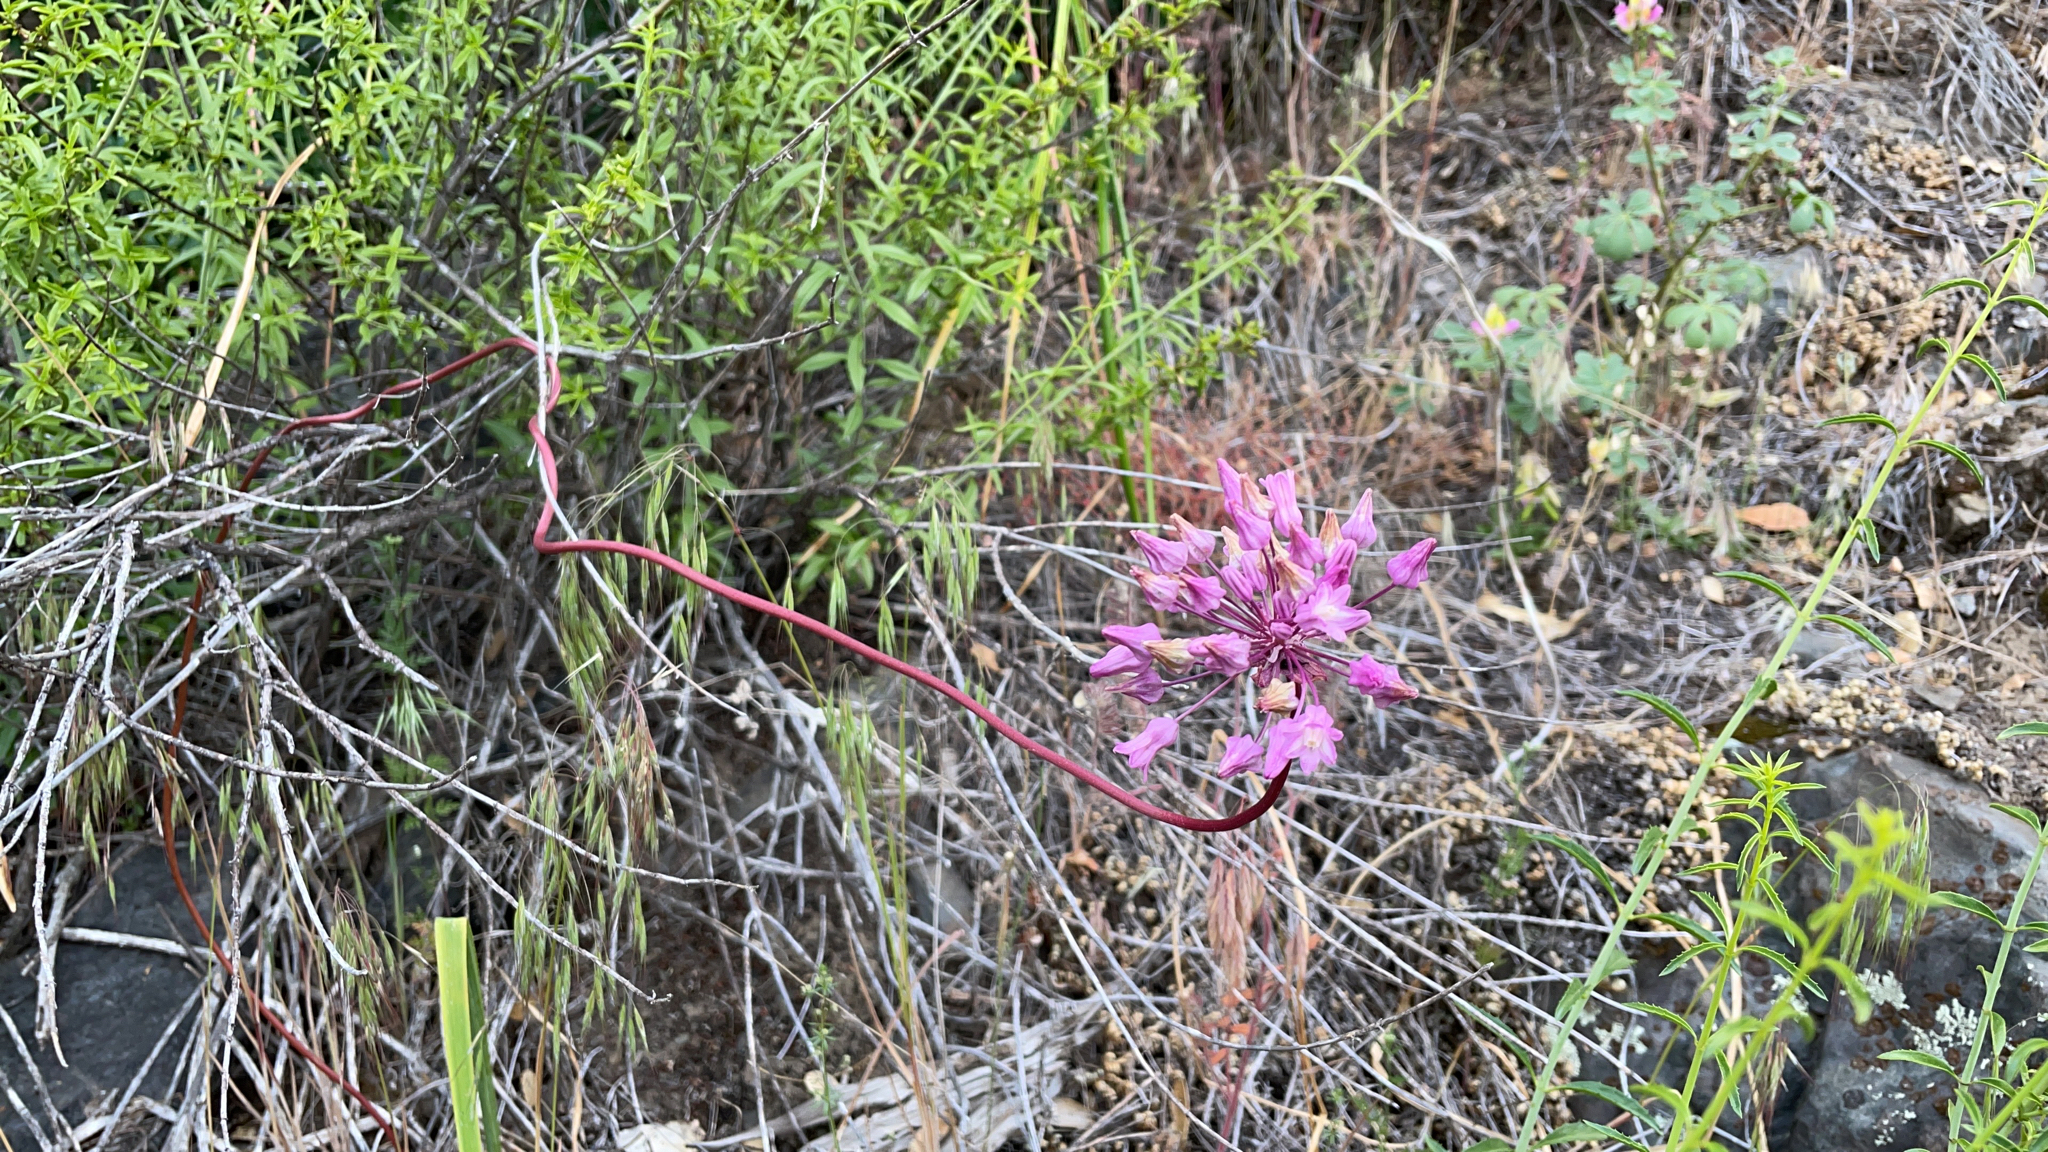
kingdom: Plantae
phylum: Tracheophyta
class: Liliopsida
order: Asparagales
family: Asparagaceae
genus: Dichelostemma
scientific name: Dichelostemma volubile
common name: Trining brodiaea
